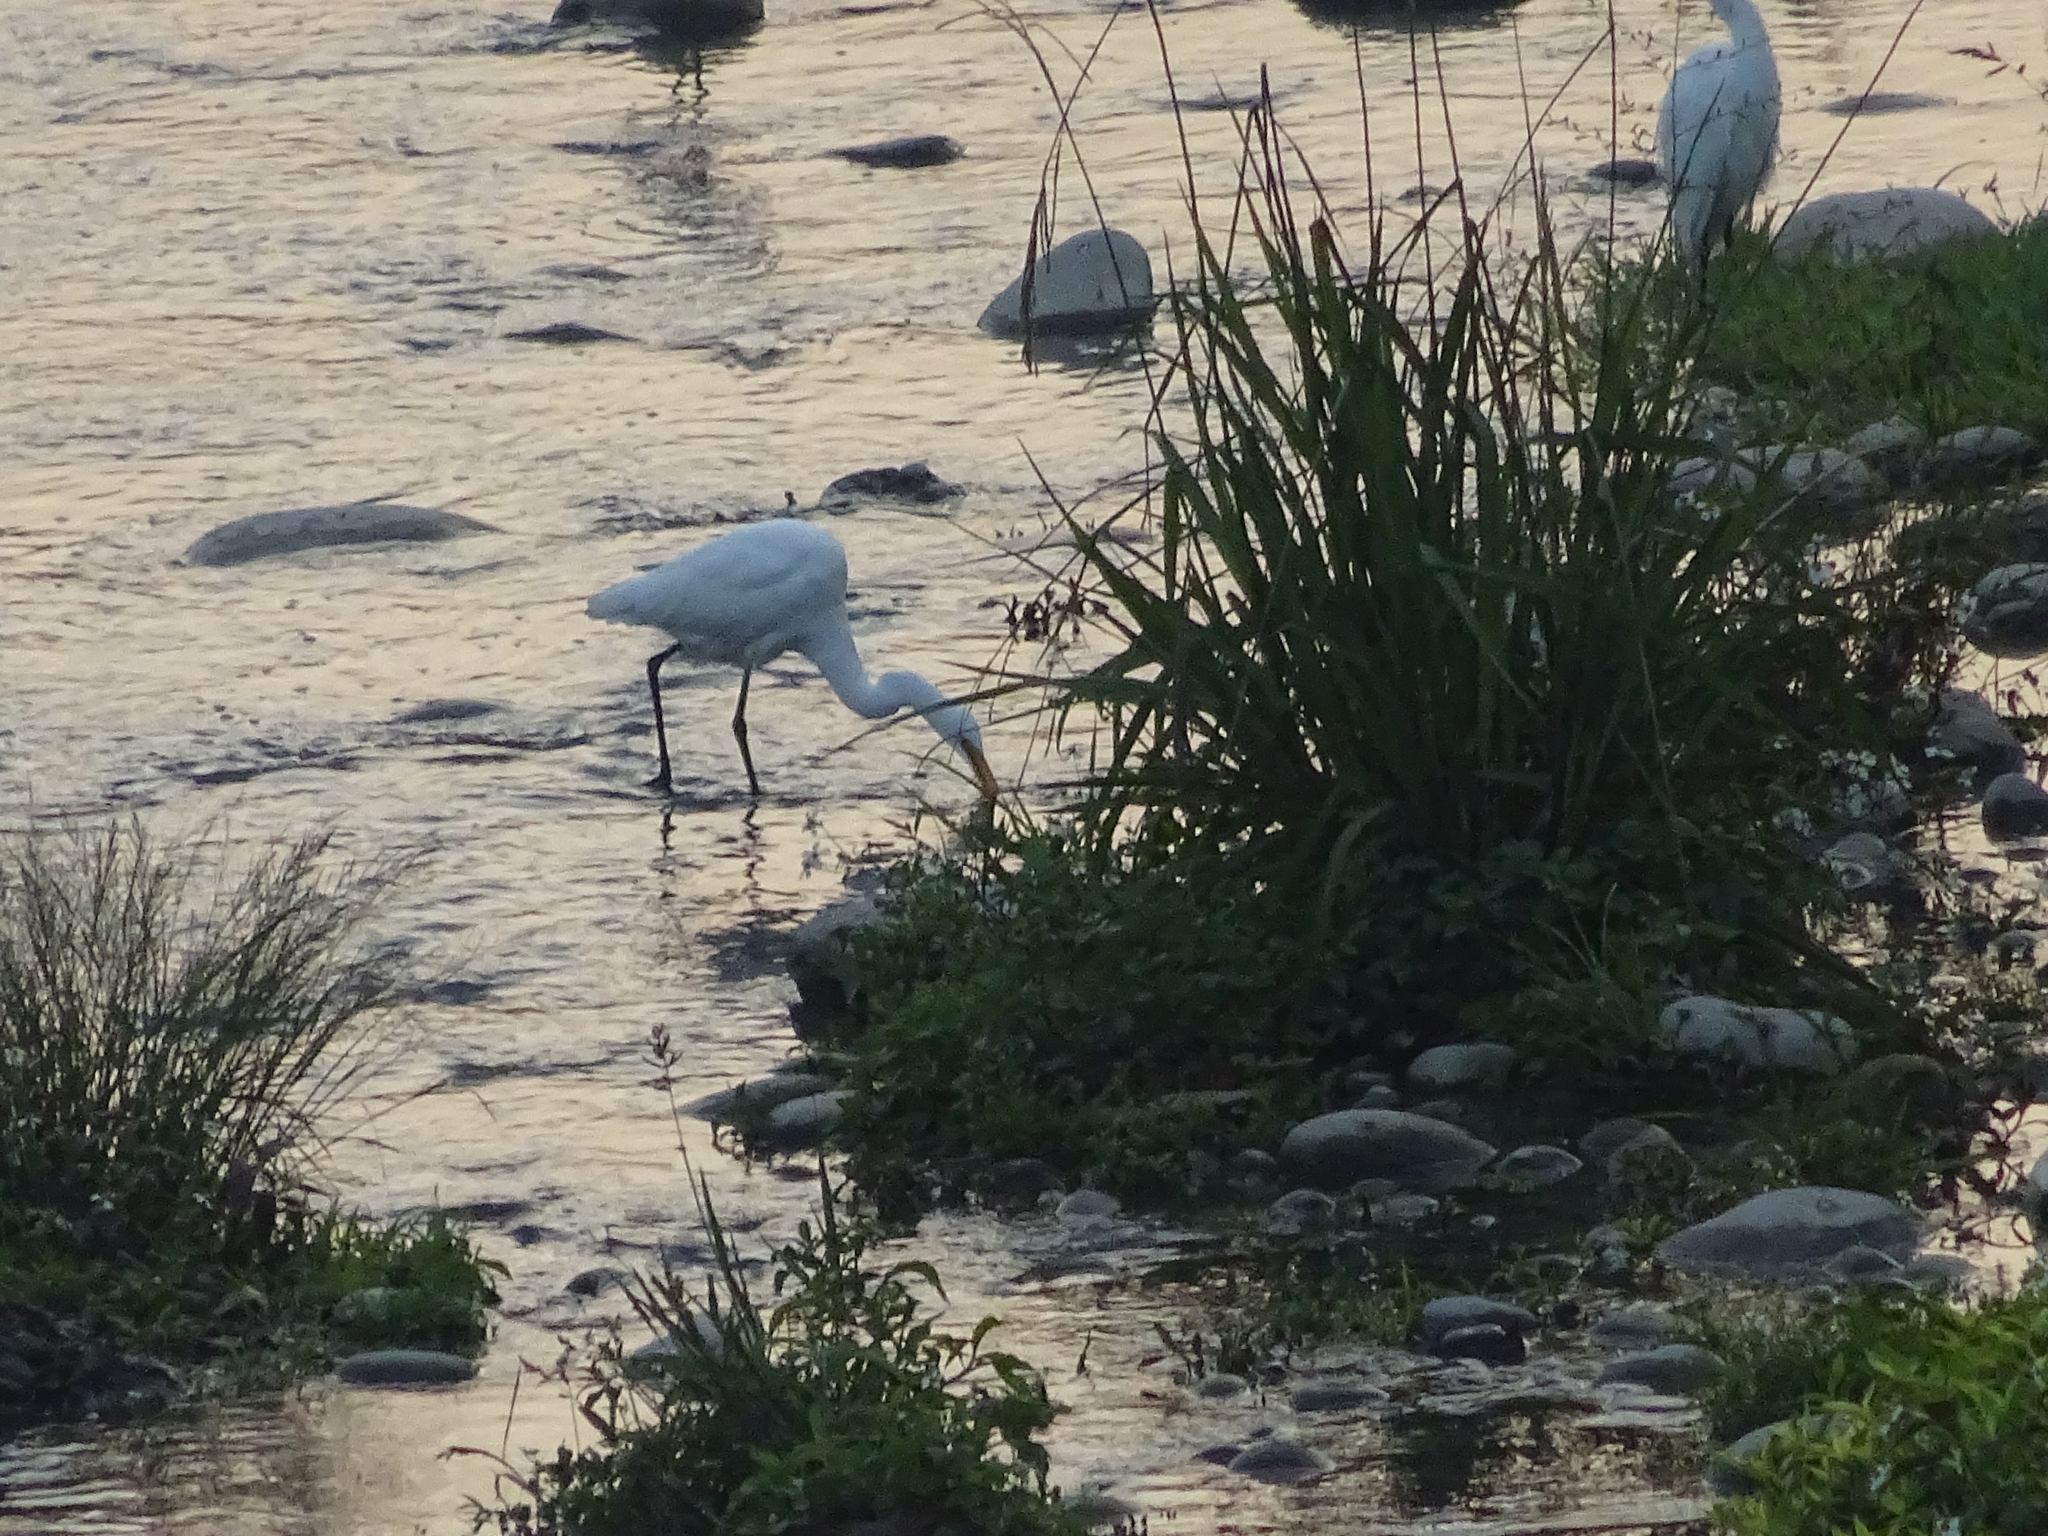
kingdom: Animalia
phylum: Chordata
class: Aves
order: Pelecaniformes
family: Ardeidae
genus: Egretta
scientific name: Egretta intermedia
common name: Intermediate egret
